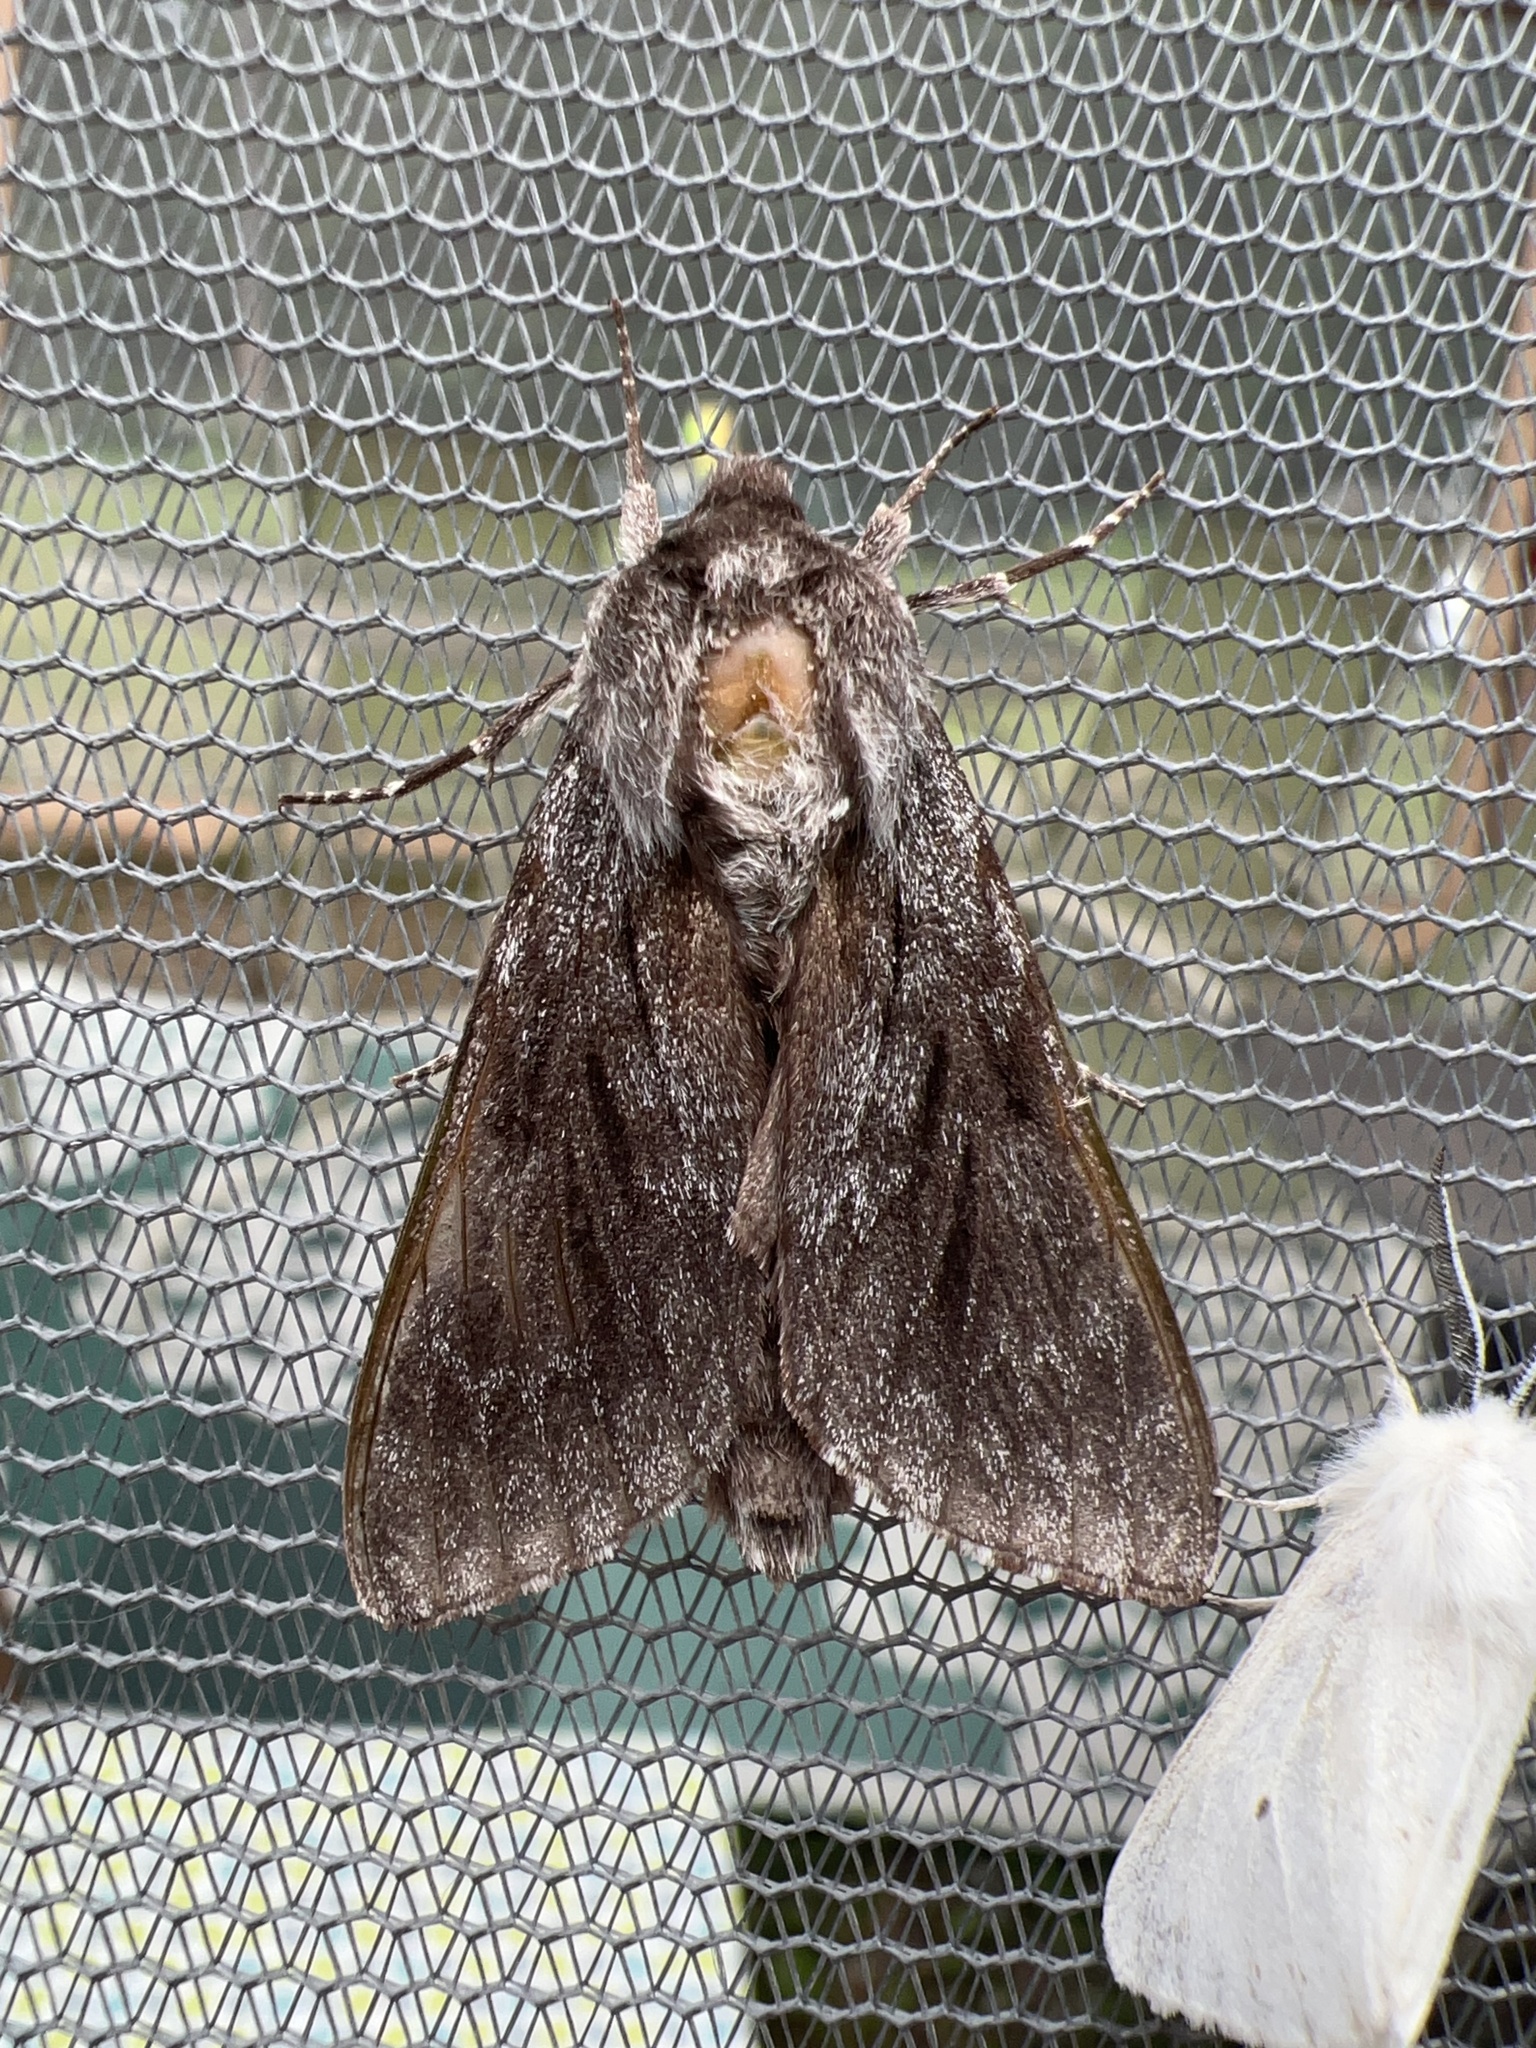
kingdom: Animalia
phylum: Arthropoda
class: Insecta
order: Lepidoptera
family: Sphingidae
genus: Lapara
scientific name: Lapara bombycoides
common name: Northern pine sphinx
